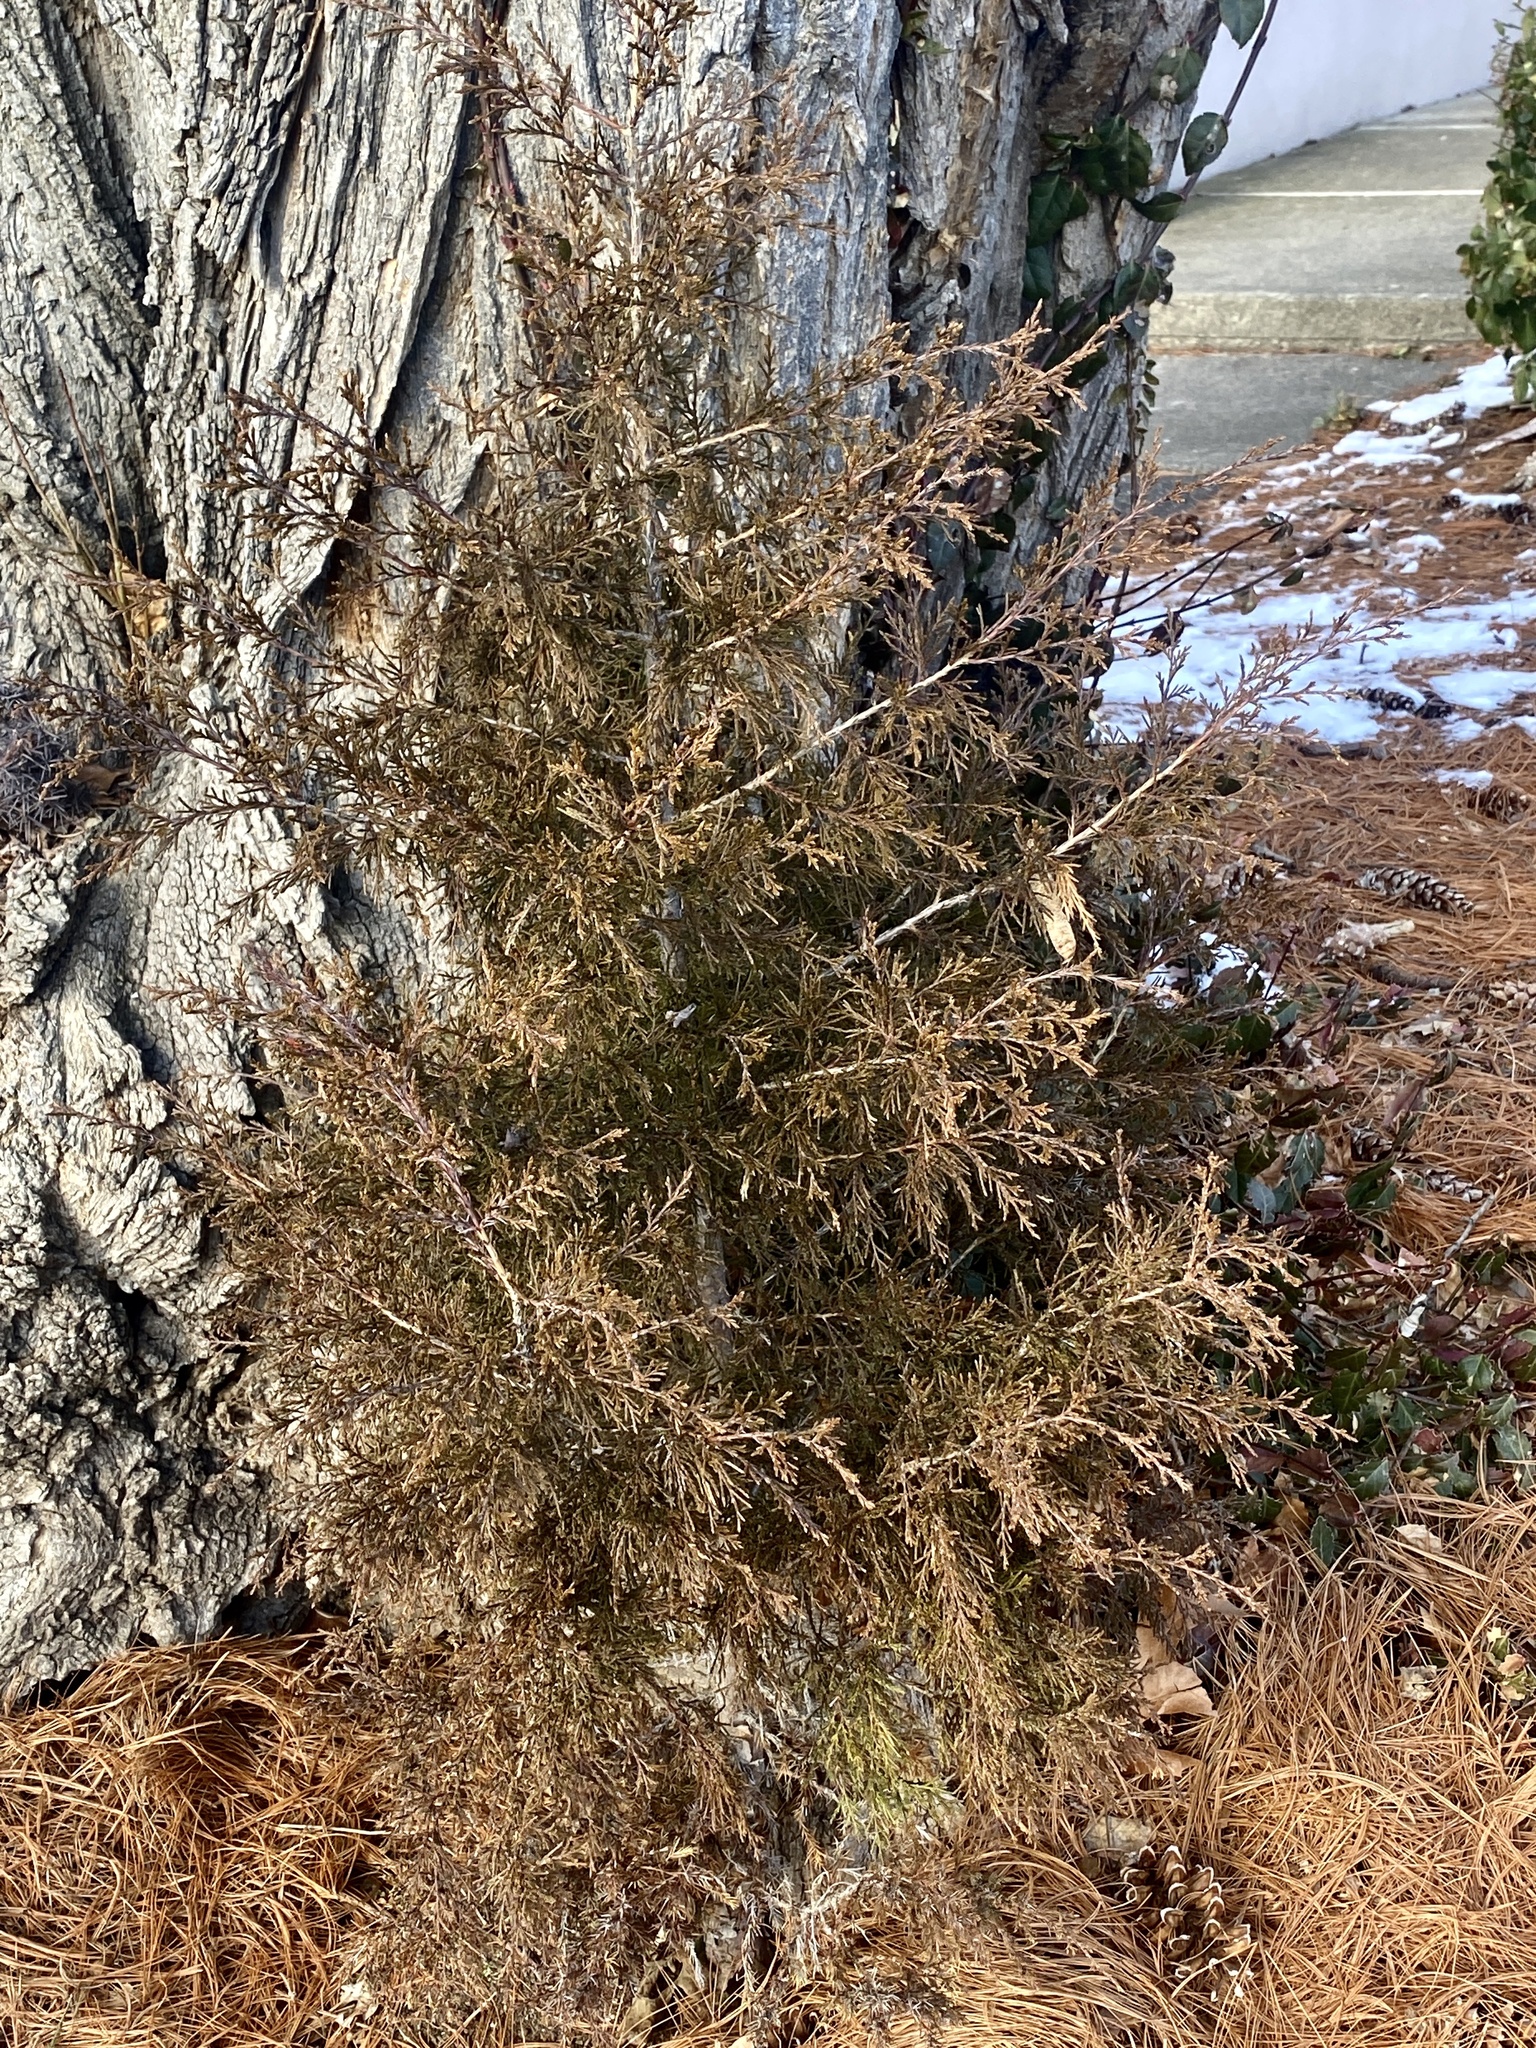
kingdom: Plantae
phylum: Tracheophyta
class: Pinopsida
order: Pinales
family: Cupressaceae
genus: Juniperus
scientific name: Juniperus virginiana
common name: Red juniper
